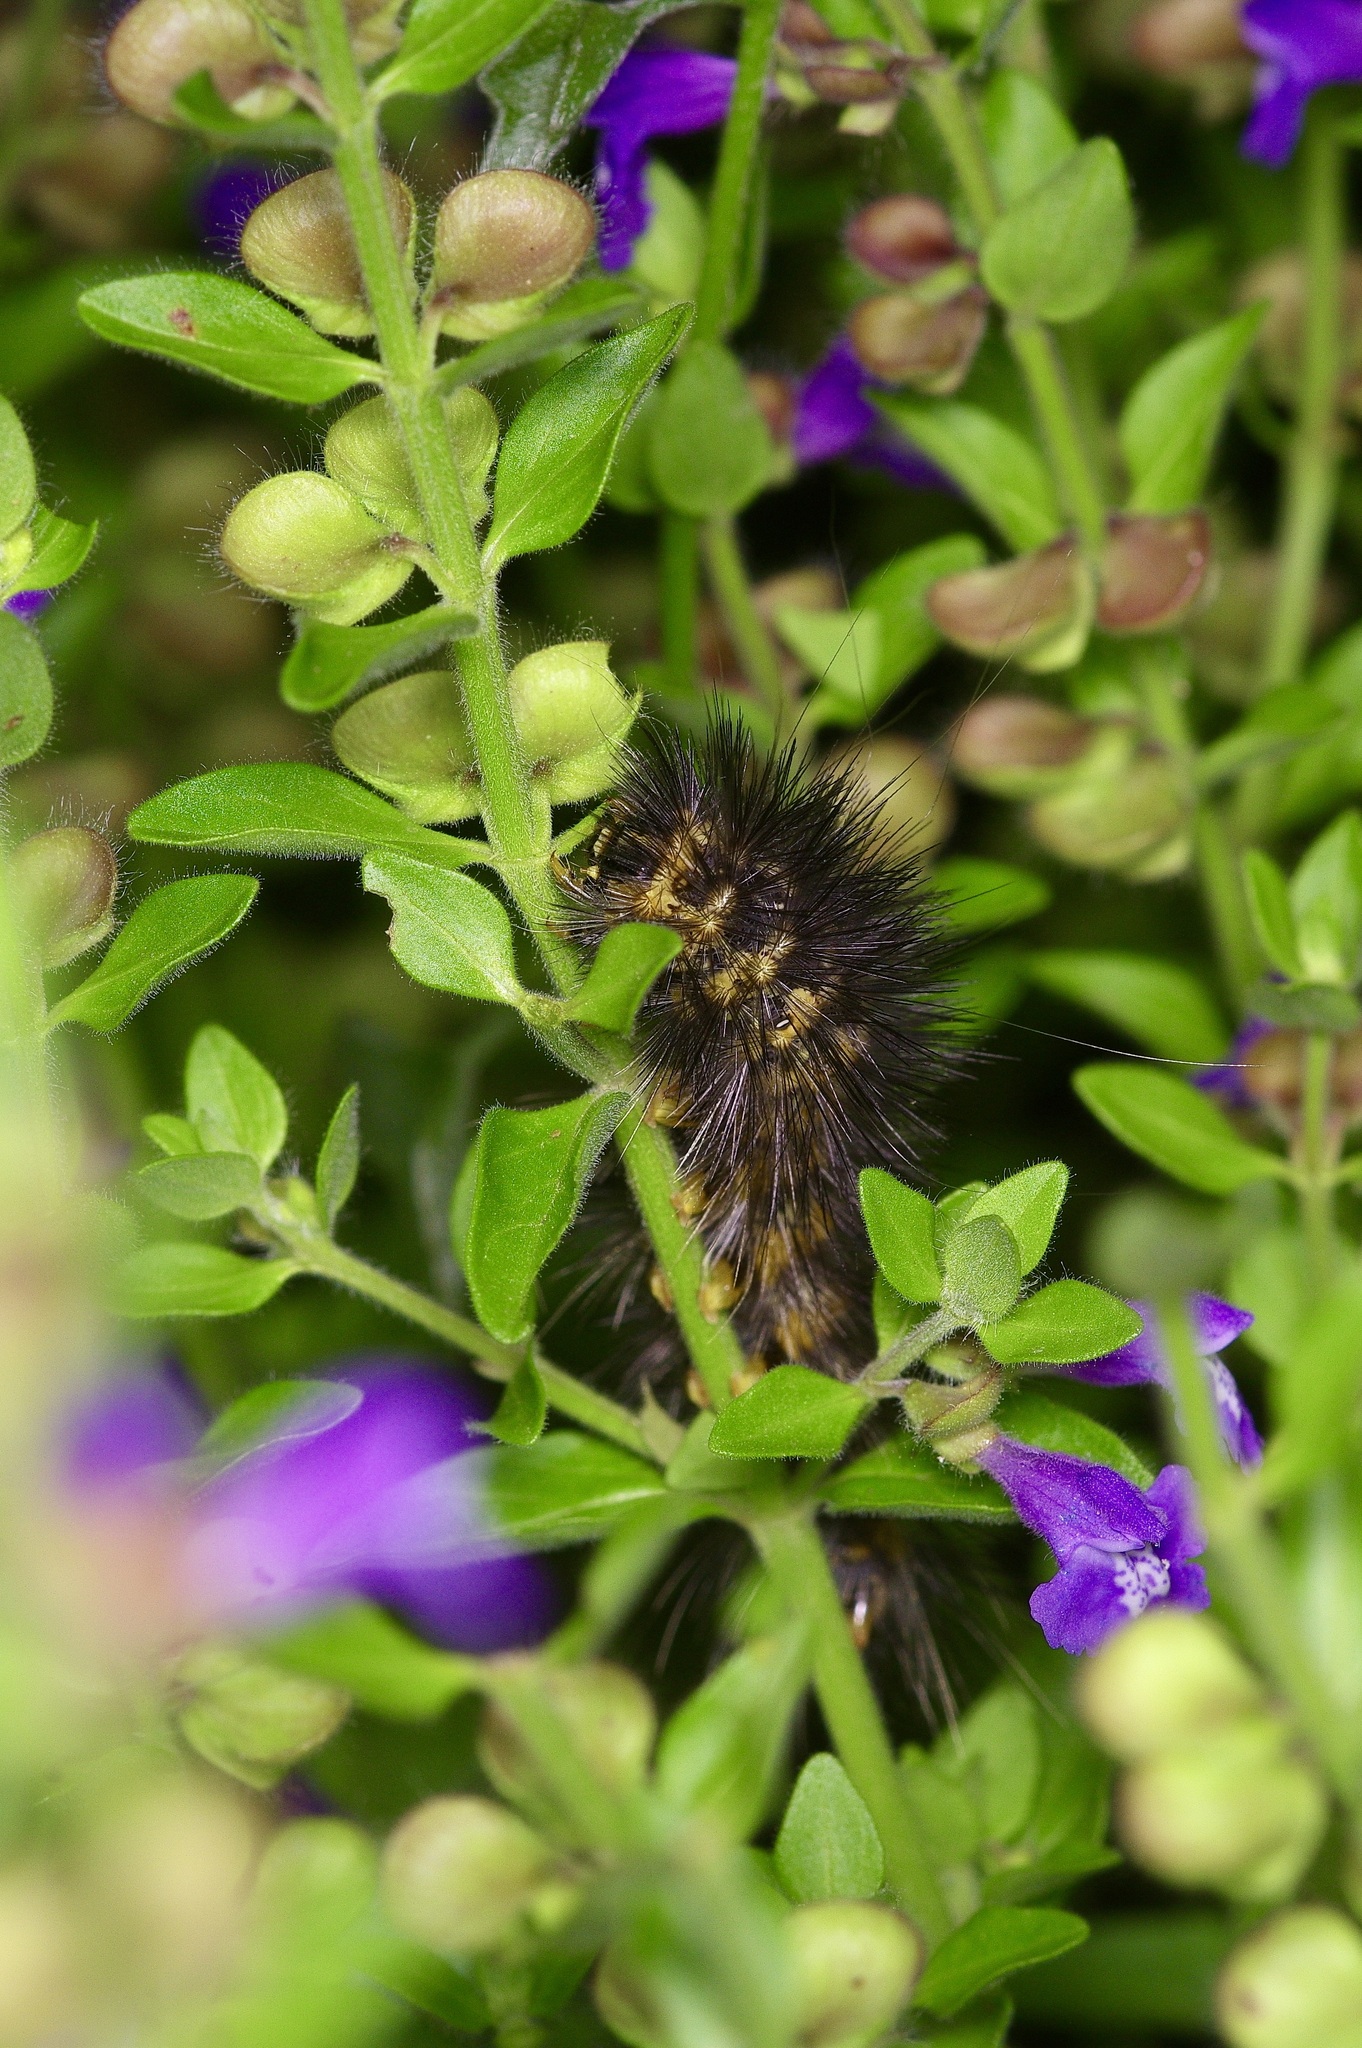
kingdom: Animalia
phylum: Arthropoda
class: Insecta
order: Lepidoptera
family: Erebidae
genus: Estigmene
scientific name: Estigmene acrea
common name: Salt marsh moth
